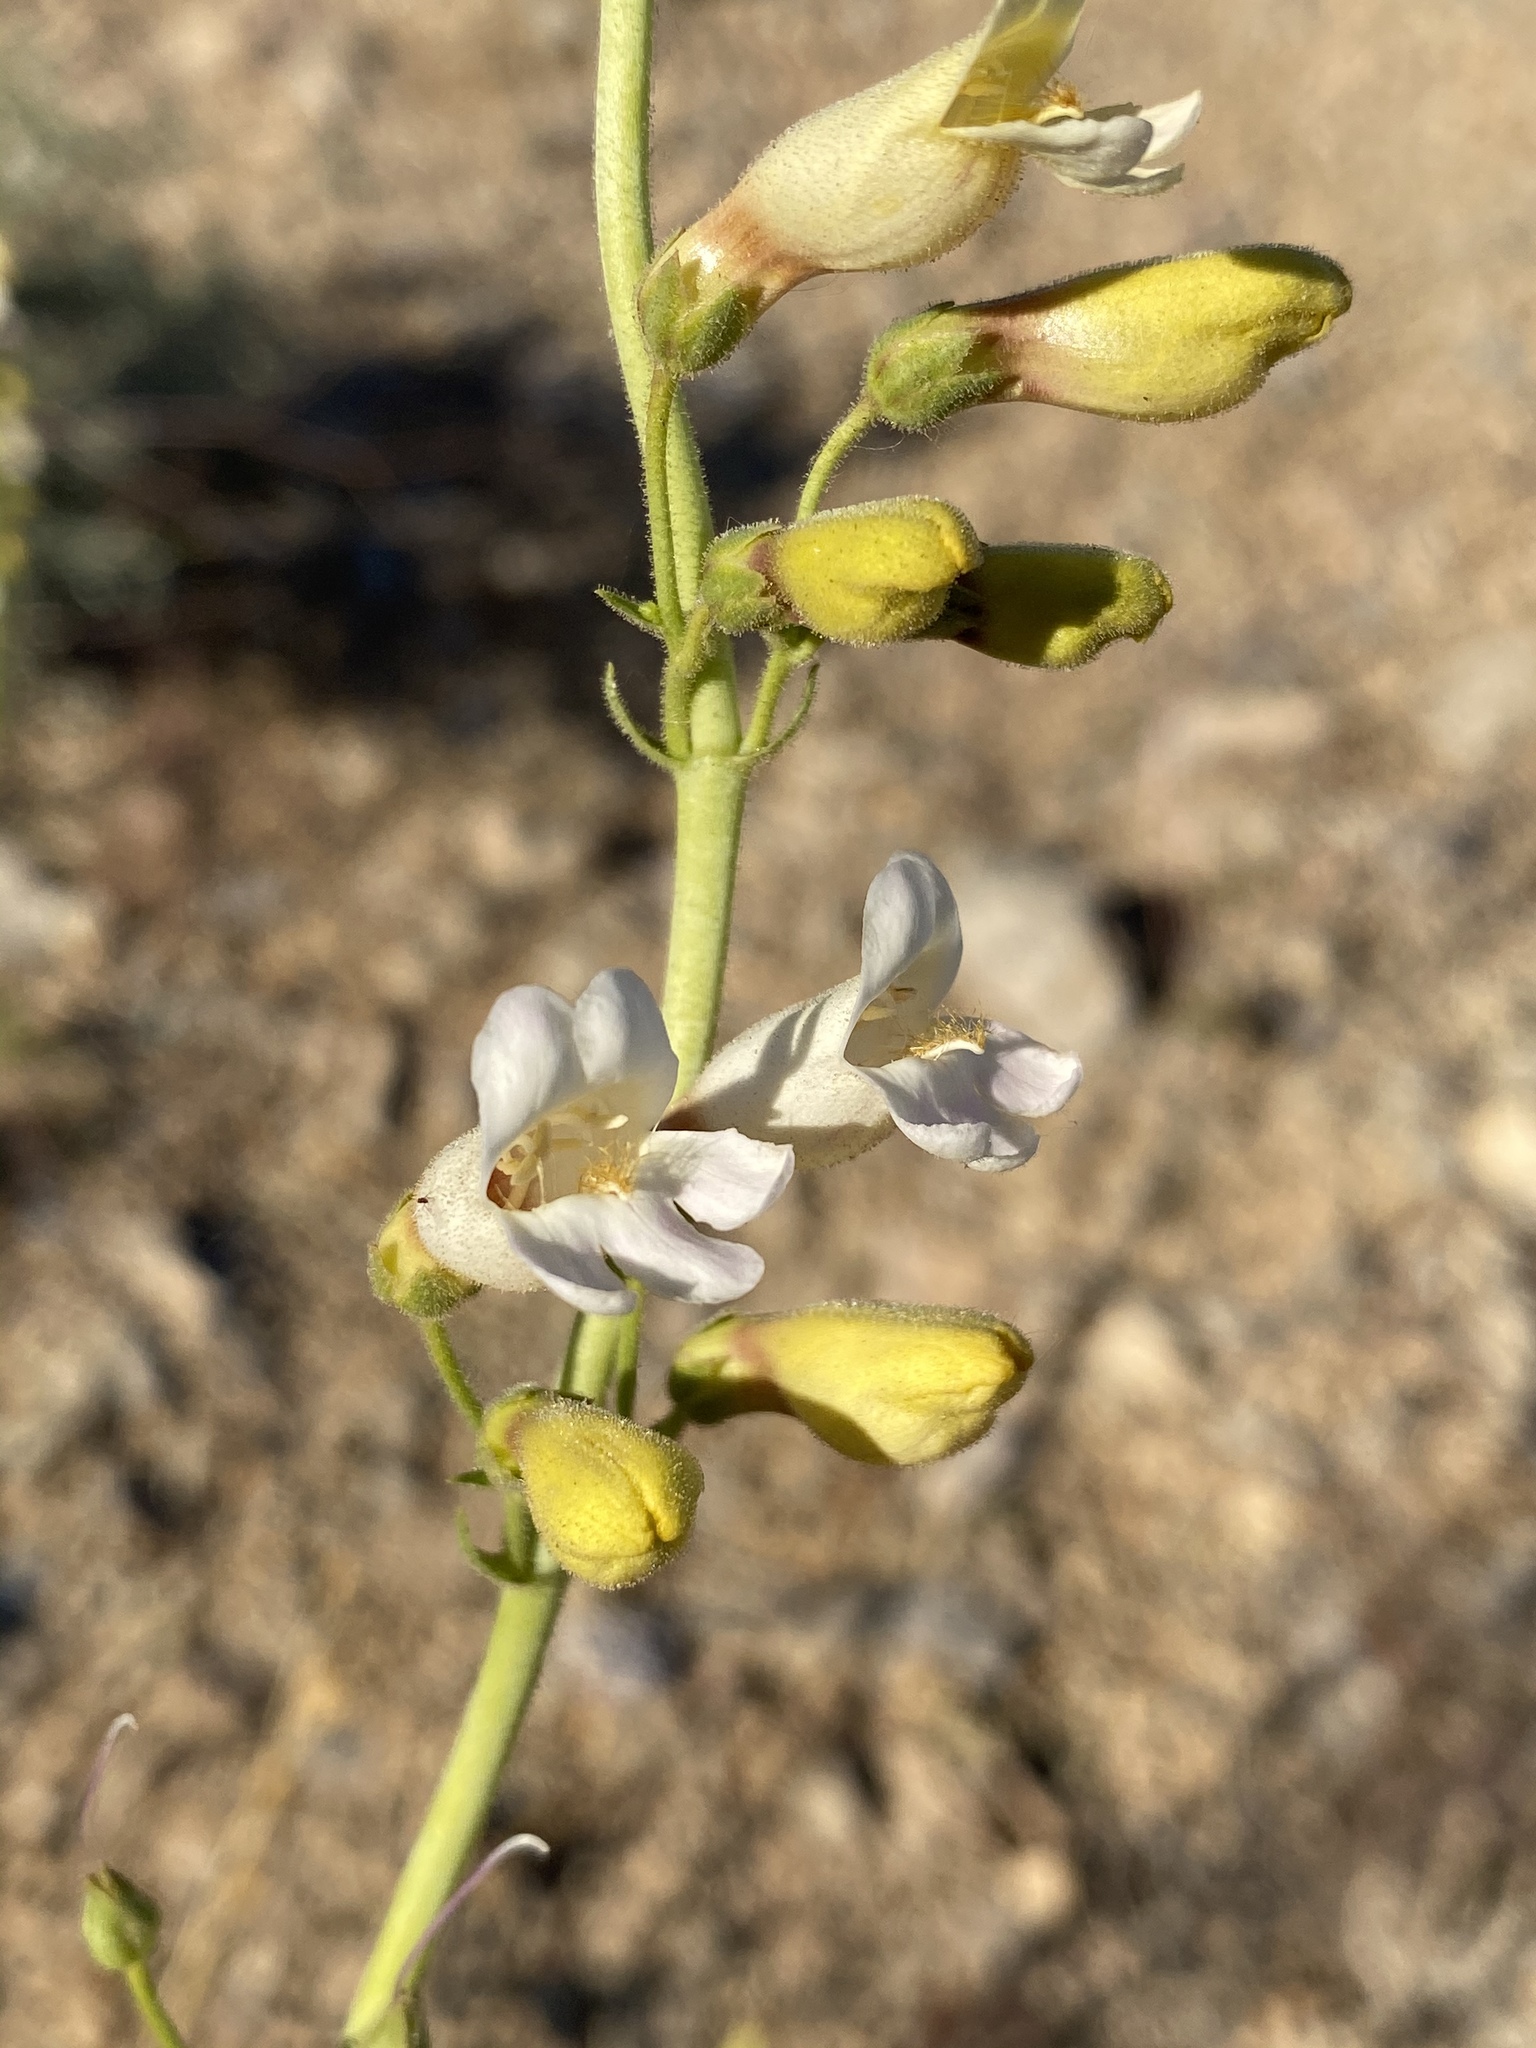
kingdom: Plantae
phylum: Tracheophyta
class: Magnoliopsida
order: Lamiales
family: Plantaginaceae
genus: Penstemon
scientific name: Penstemon bicolor
